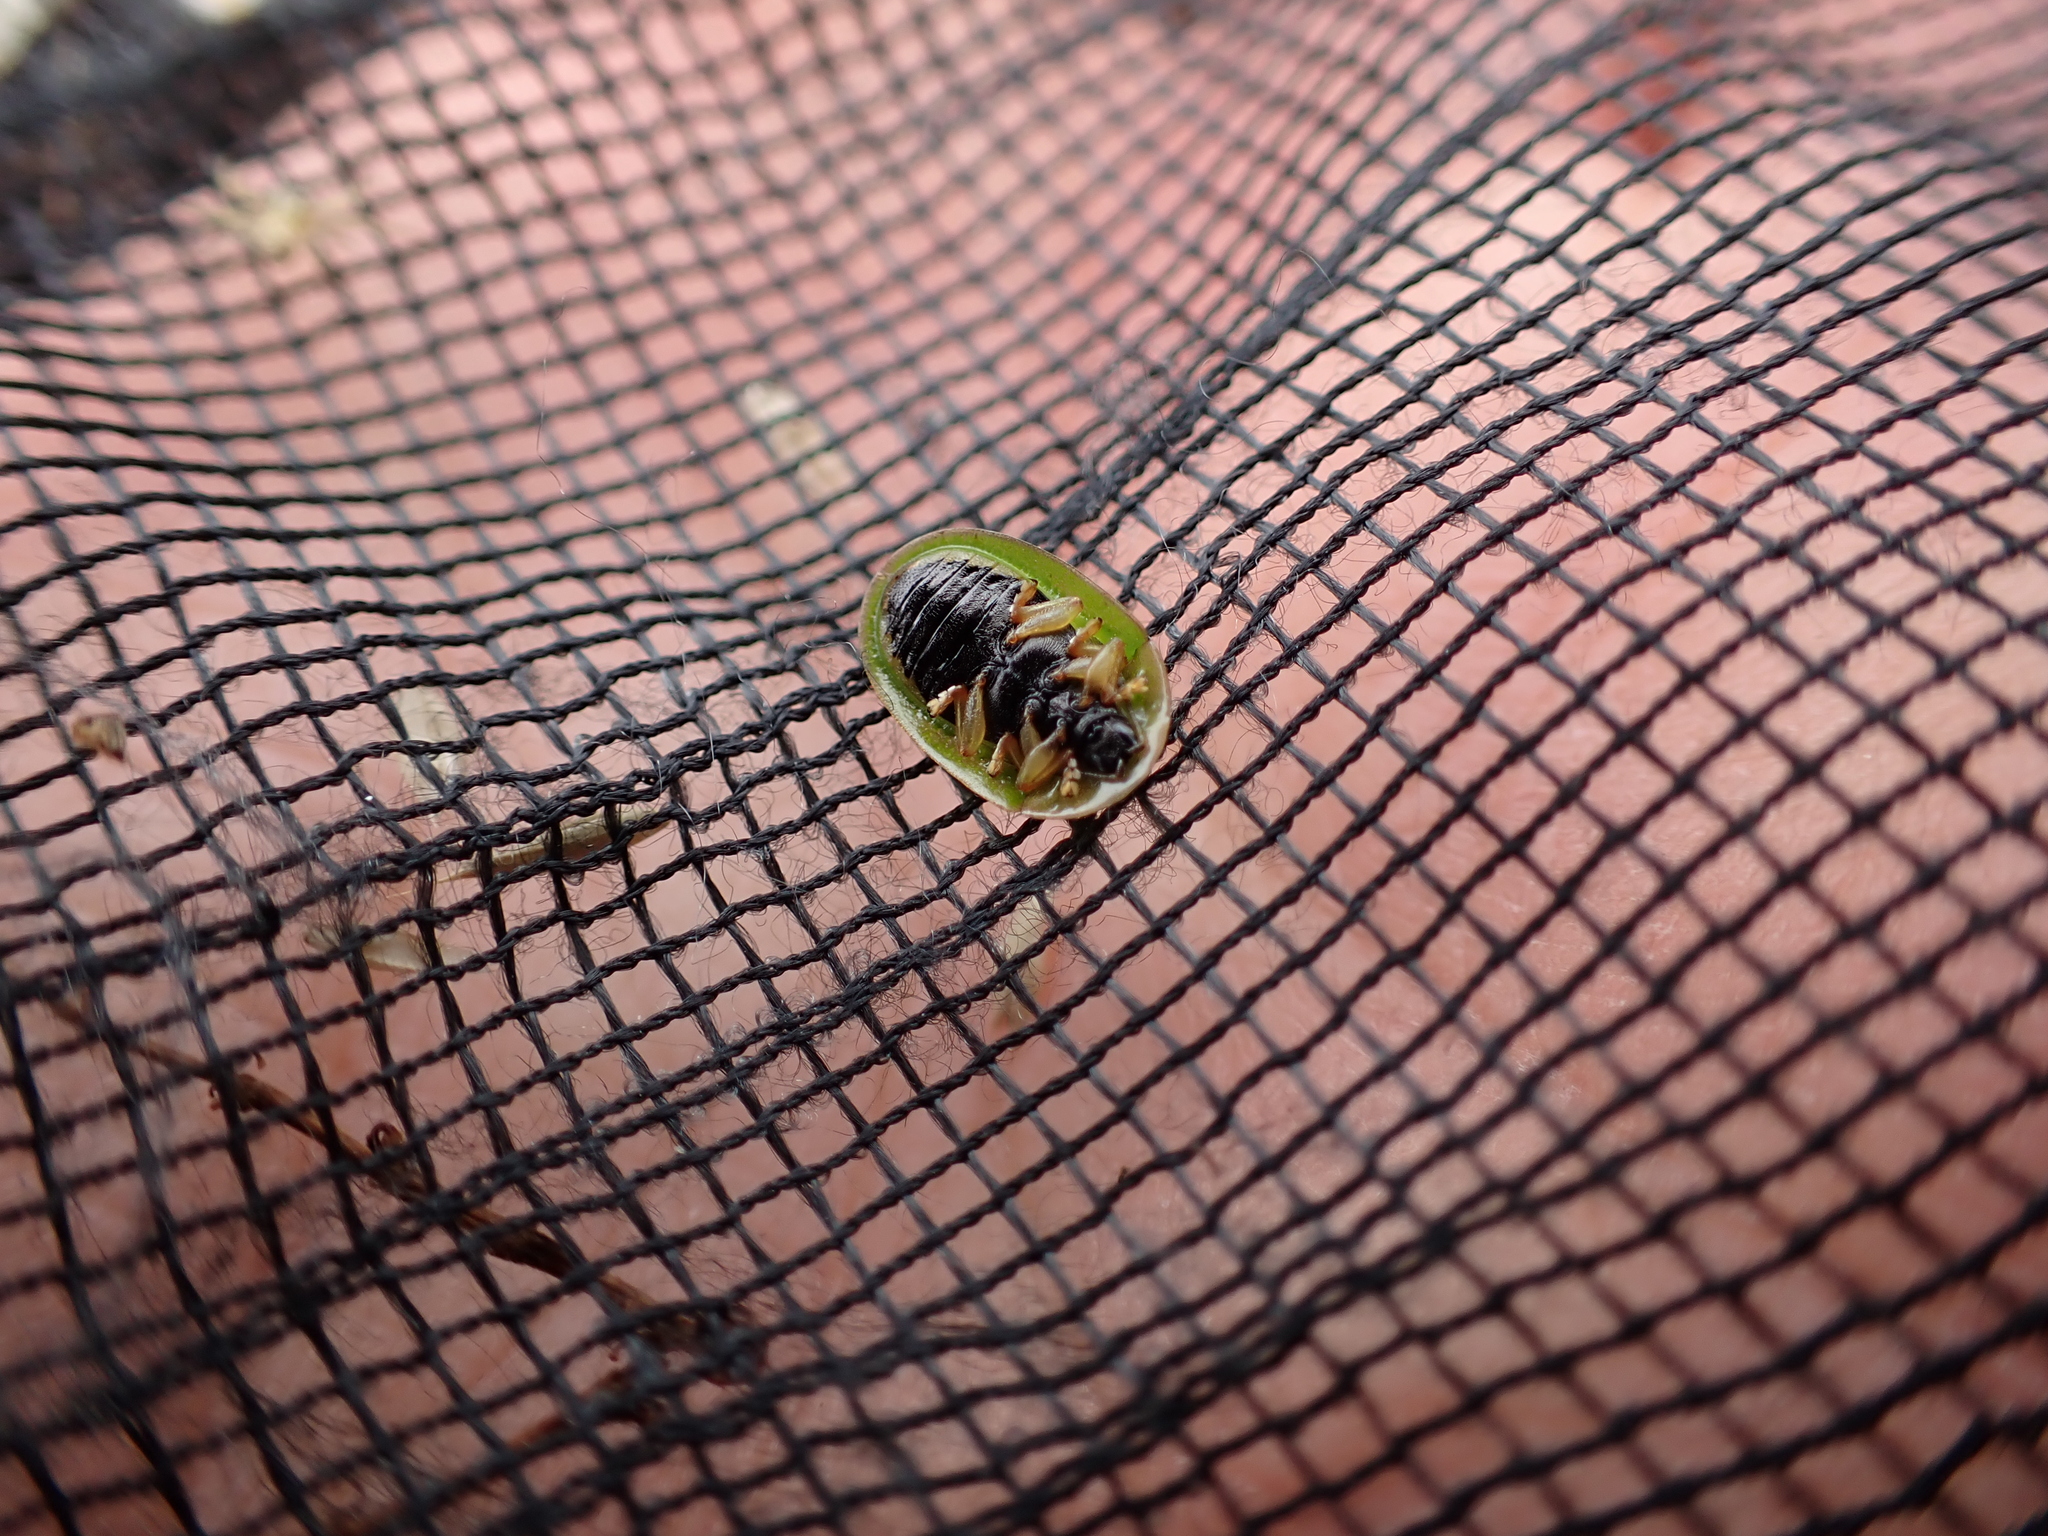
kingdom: Animalia
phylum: Arthropoda
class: Insecta
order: Coleoptera
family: Chrysomelidae
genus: Cassida
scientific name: Cassida sanguinosa
